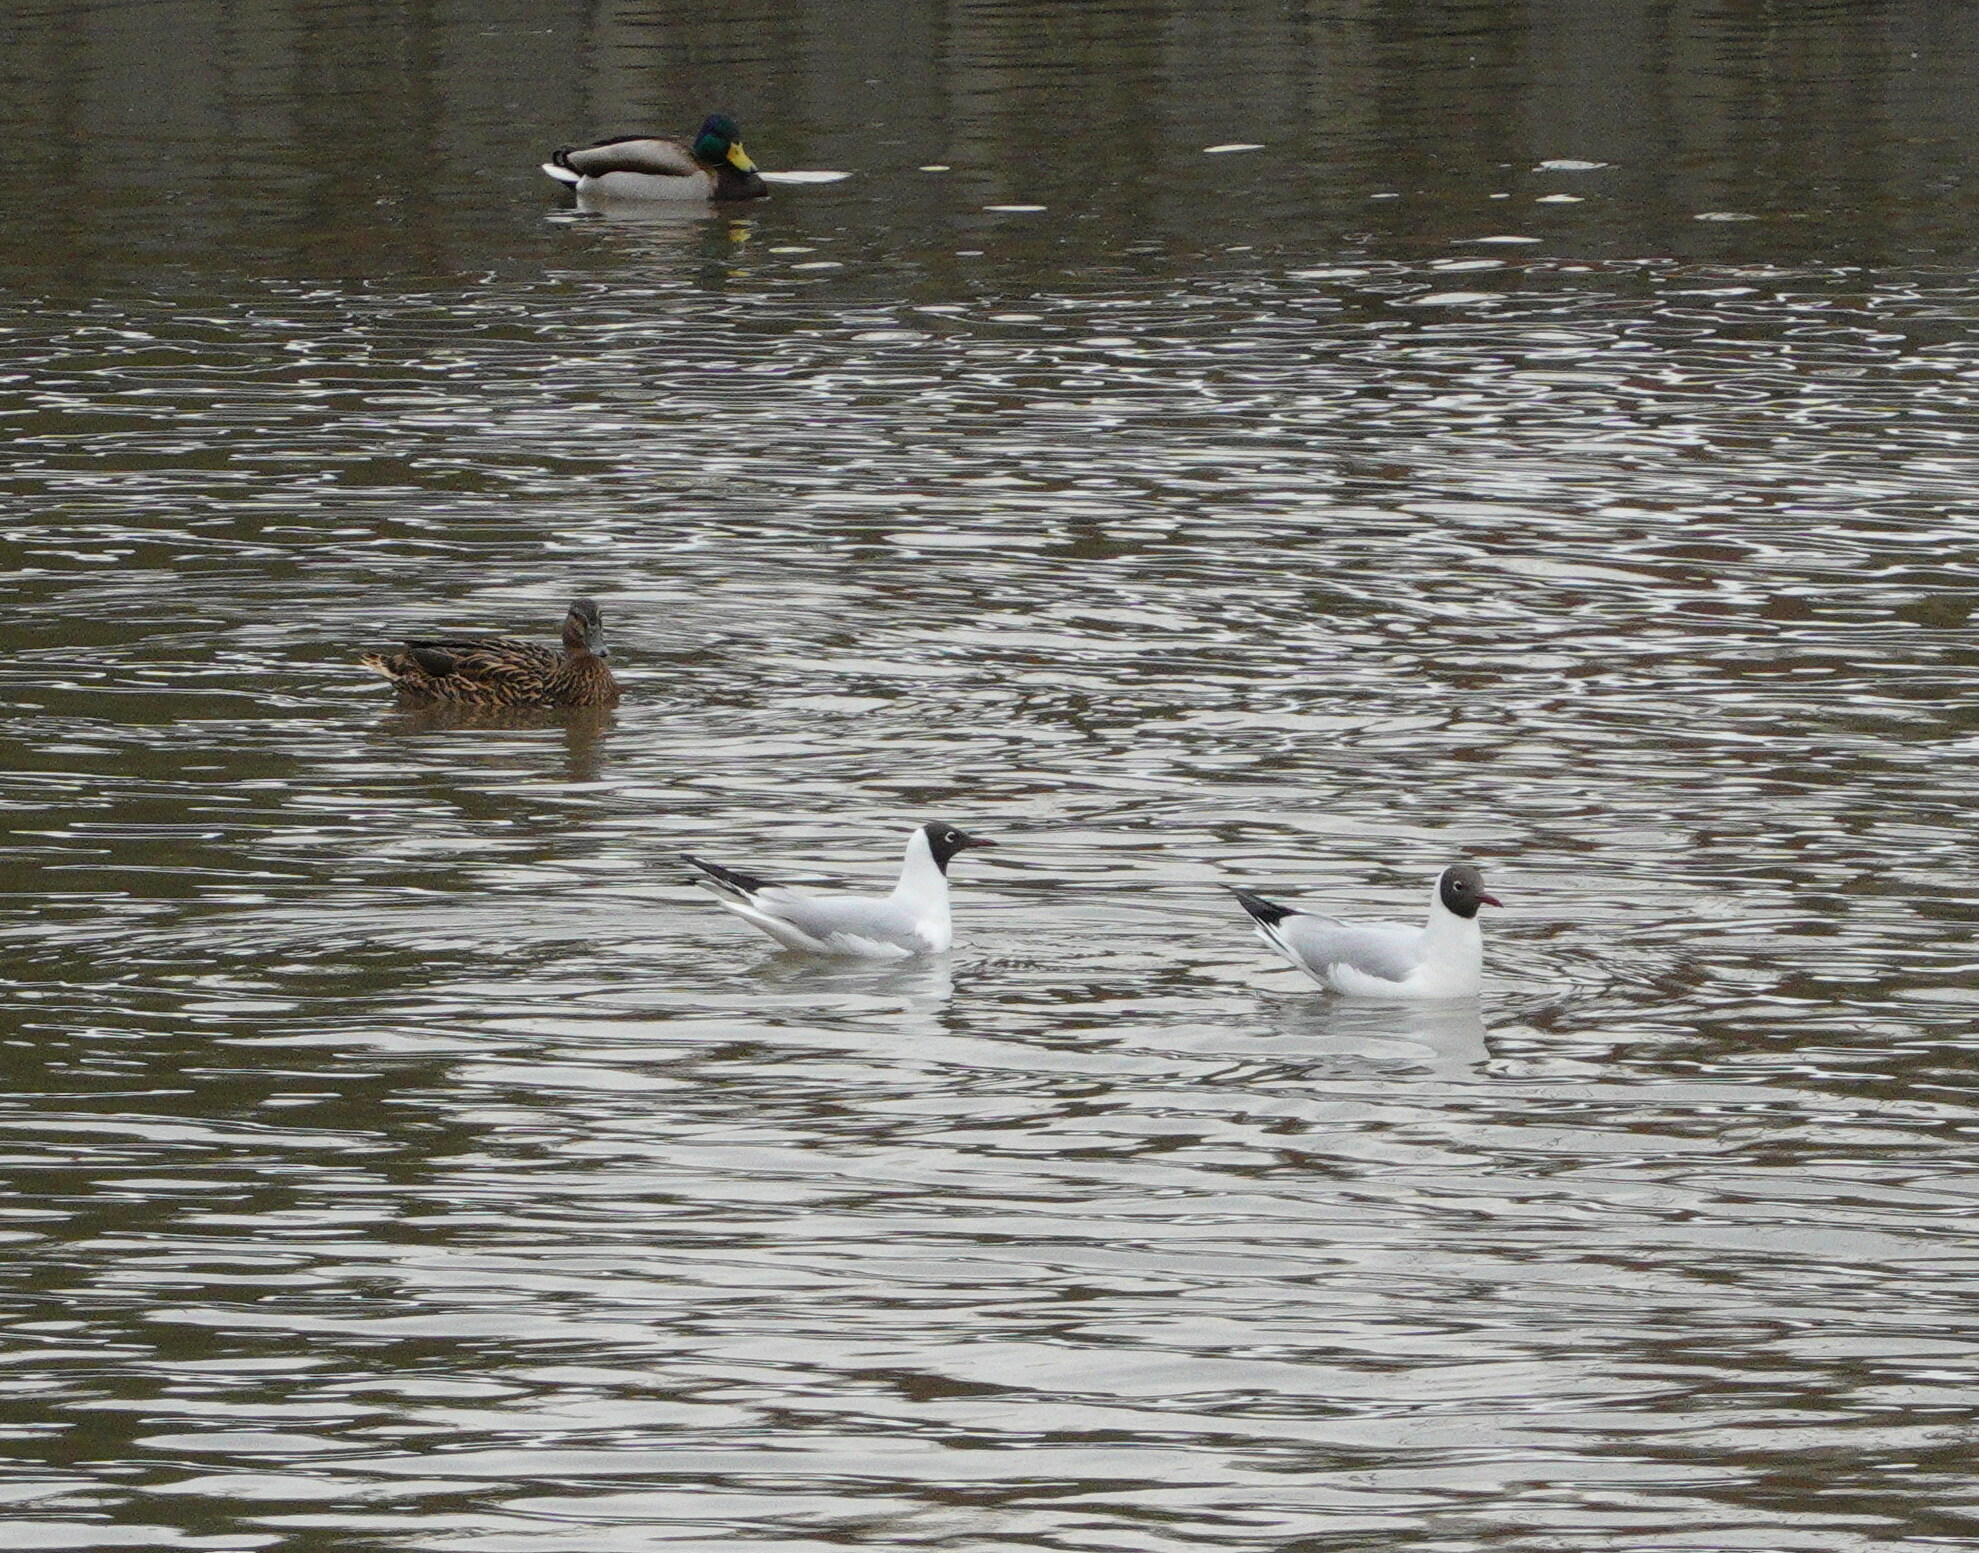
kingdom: Animalia
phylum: Chordata
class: Aves
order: Charadriiformes
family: Laridae
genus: Chroicocephalus
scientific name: Chroicocephalus ridibundus
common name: Black-headed gull
